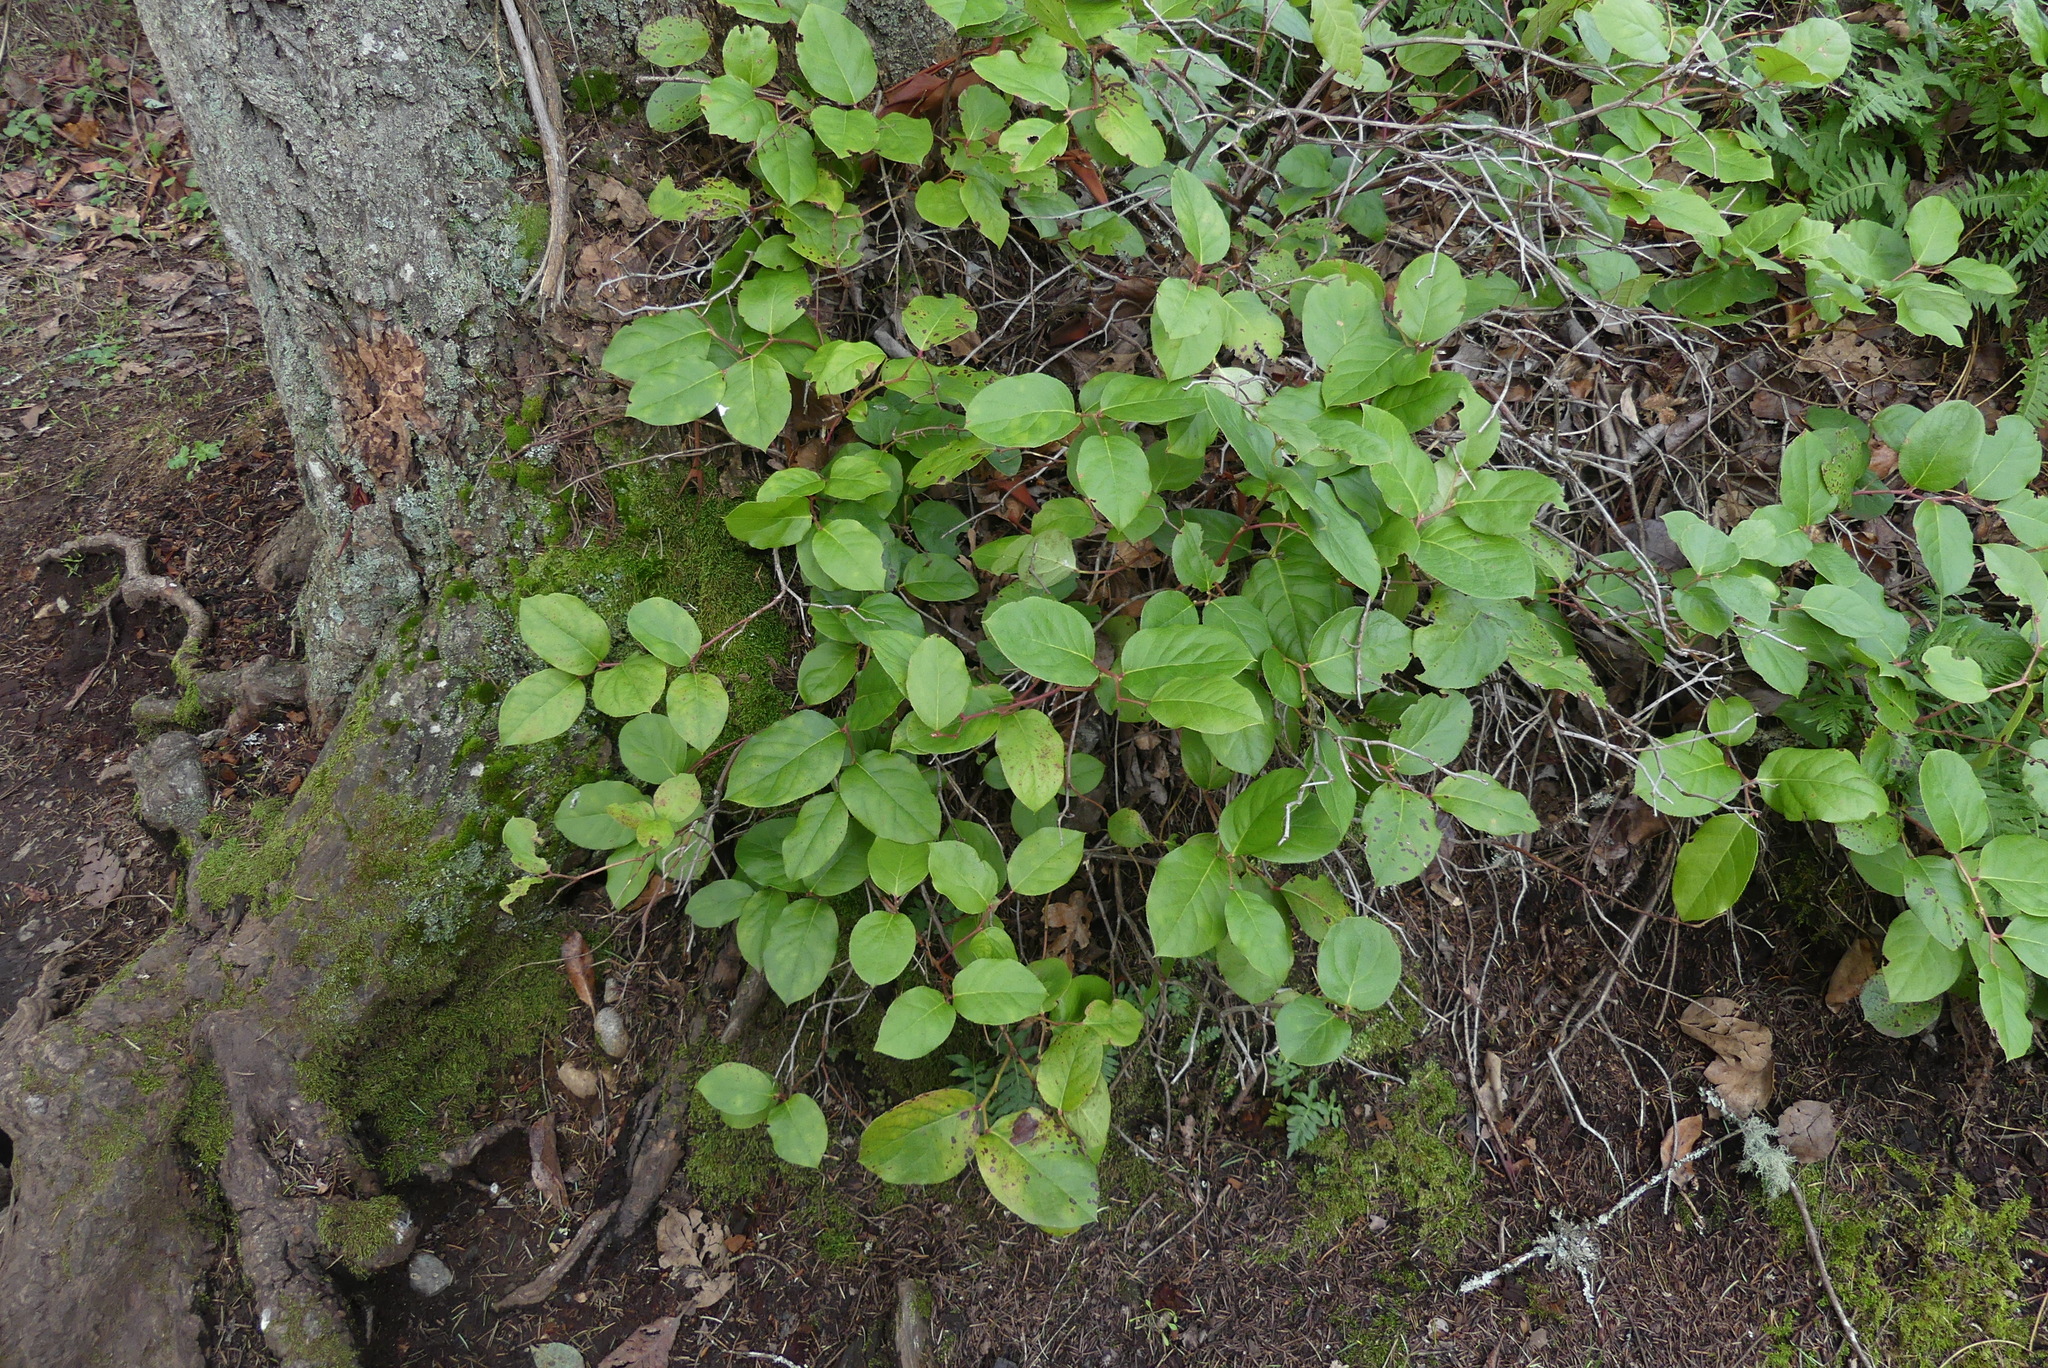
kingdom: Plantae
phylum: Tracheophyta
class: Magnoliopsida
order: Ericales
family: Ericaceae
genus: Gaultheria
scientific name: Gaultheria shallon
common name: Shallon
